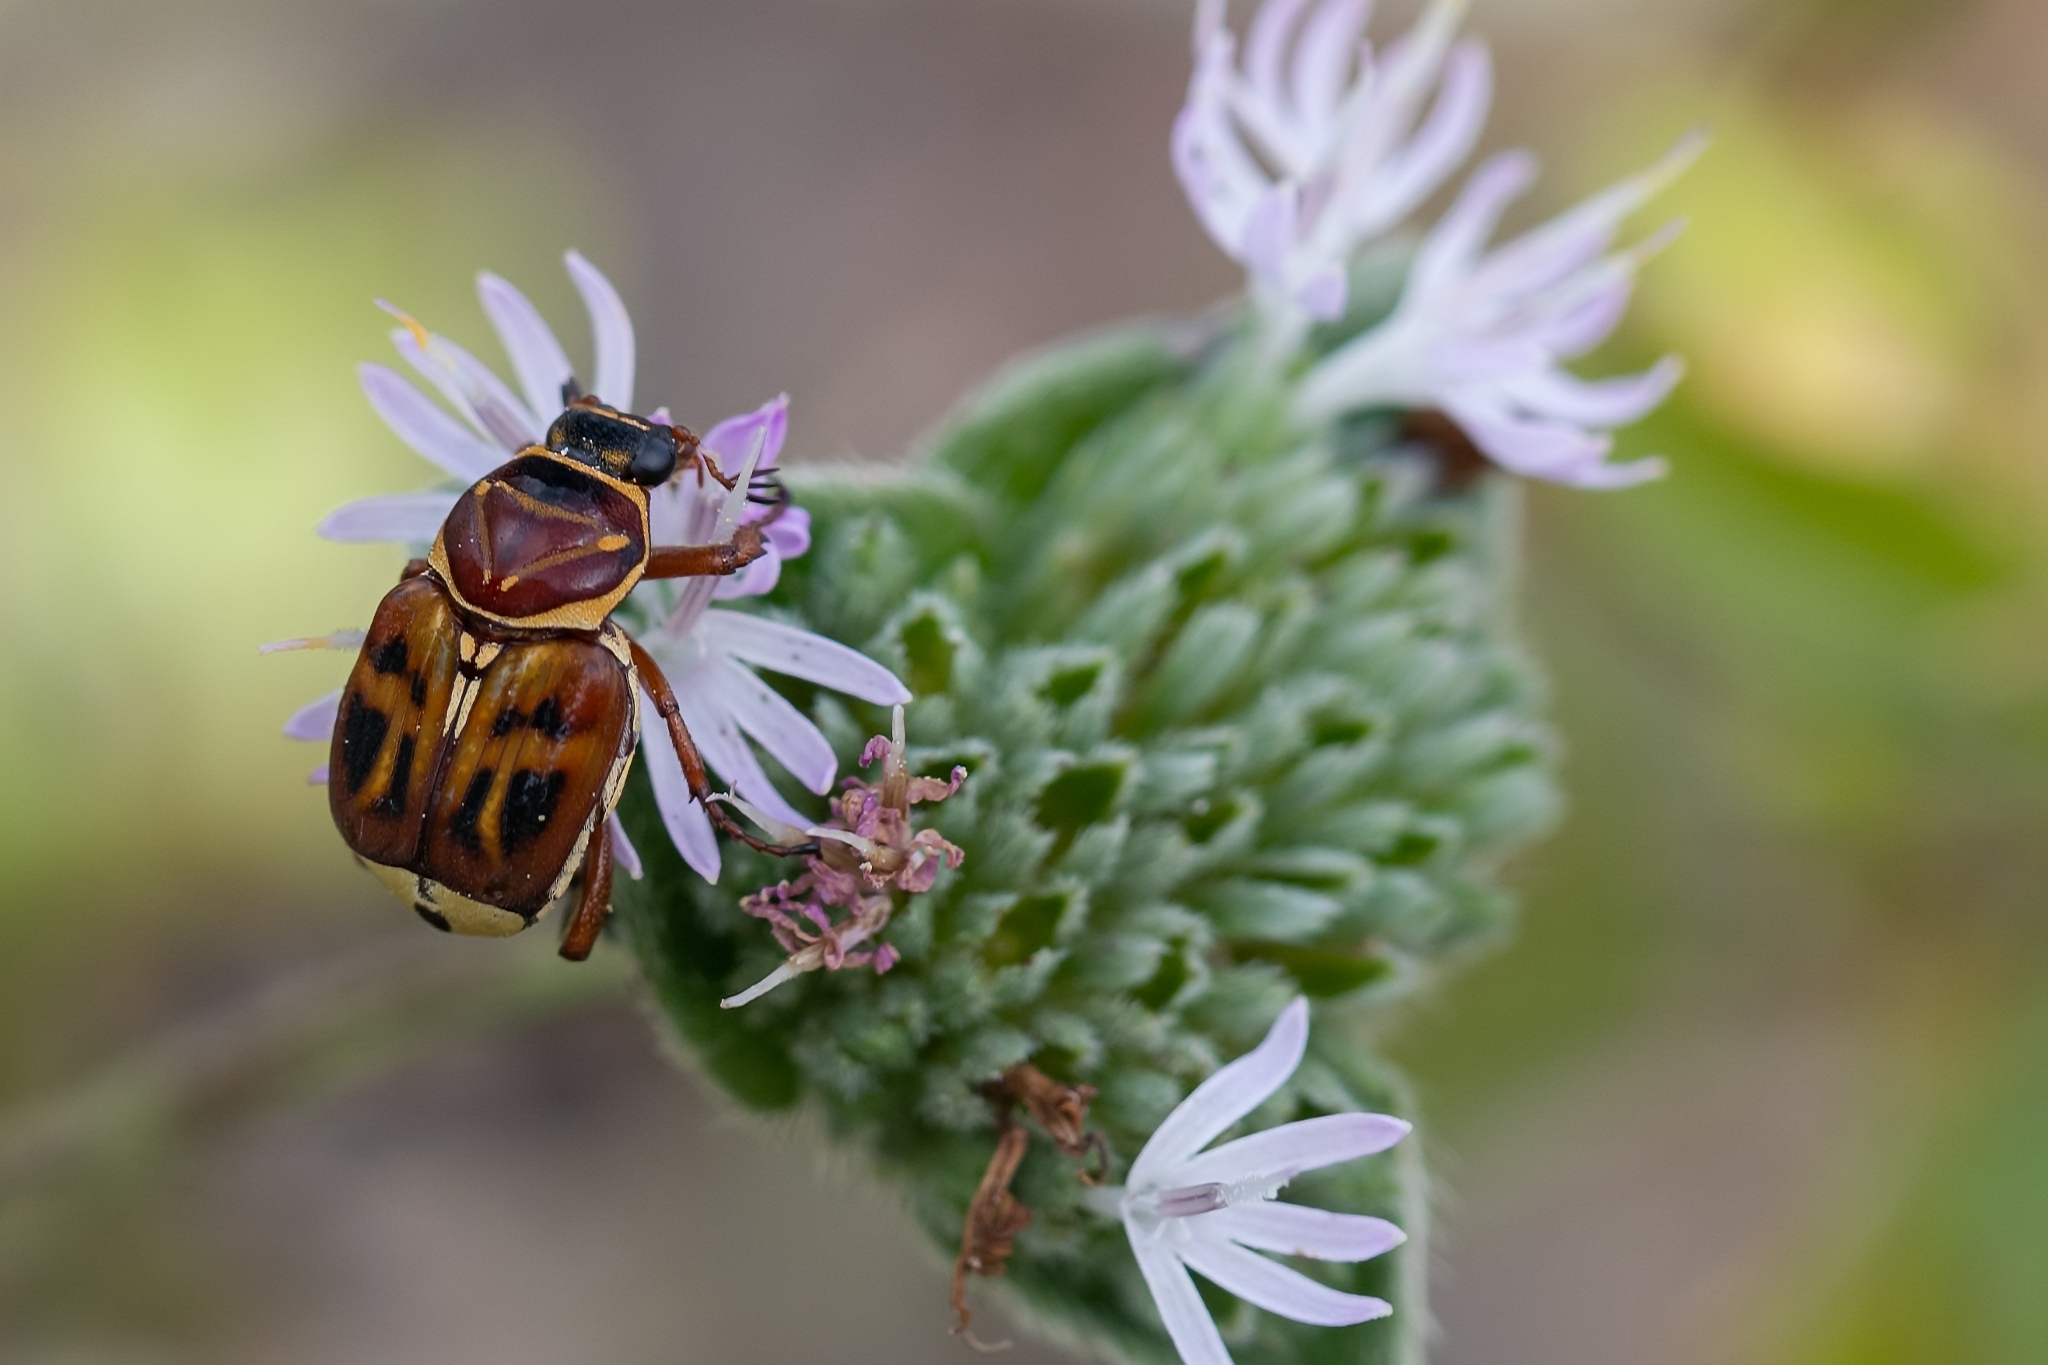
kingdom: Animalia
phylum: Arthropoda
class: Insecta
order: Coleoptera
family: Scarabaeidae
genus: Trigonopeltastes
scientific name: Trigonopeltastes delta
